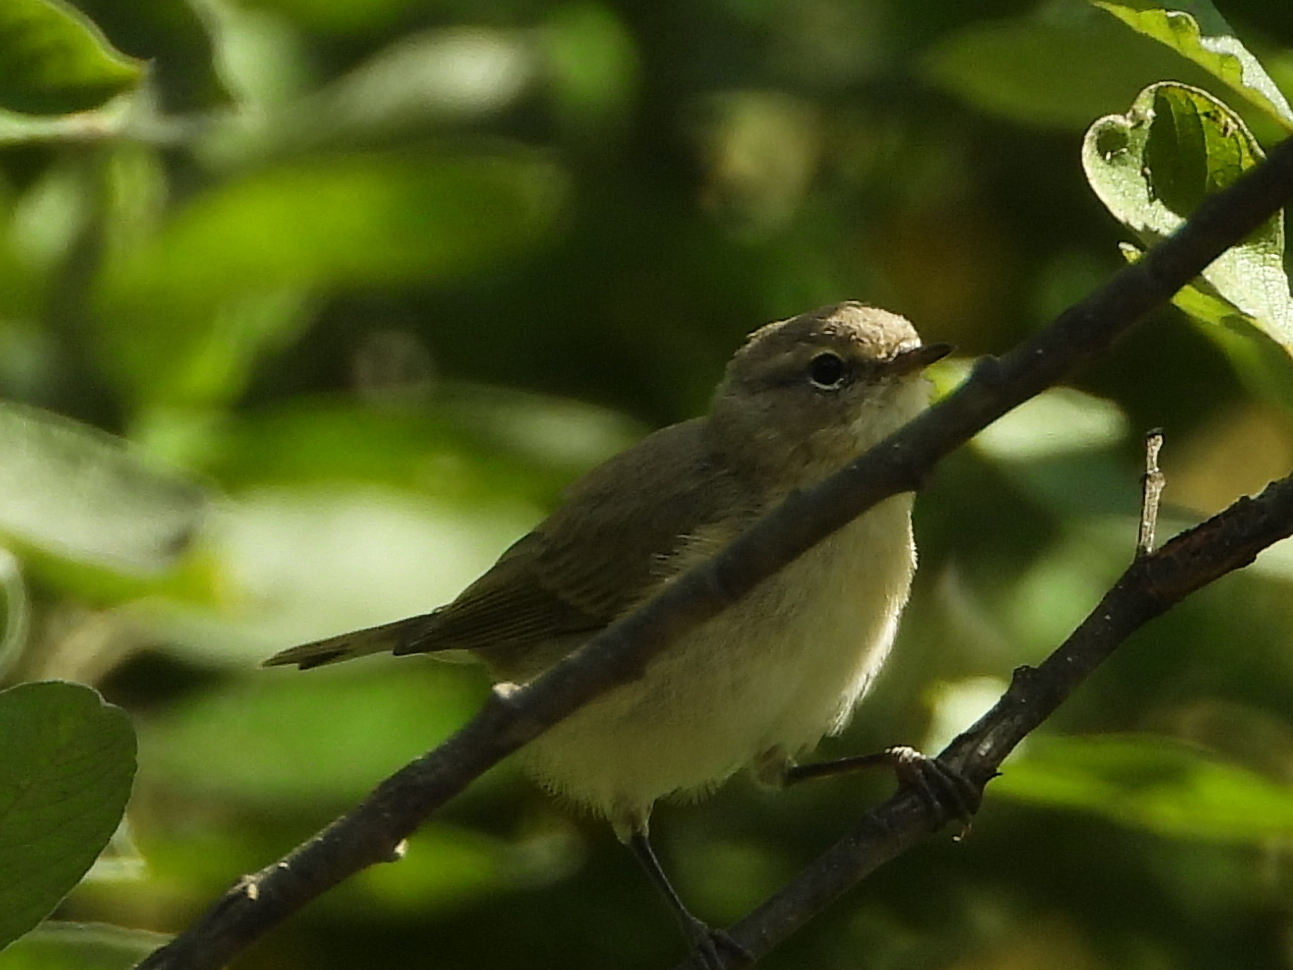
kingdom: Animalia
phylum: Chordata
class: Aves
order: Passeriformes
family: Phylloscopidae
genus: Phylloscopus
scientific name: Phylloscopus collybita
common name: Common chiffchaff
